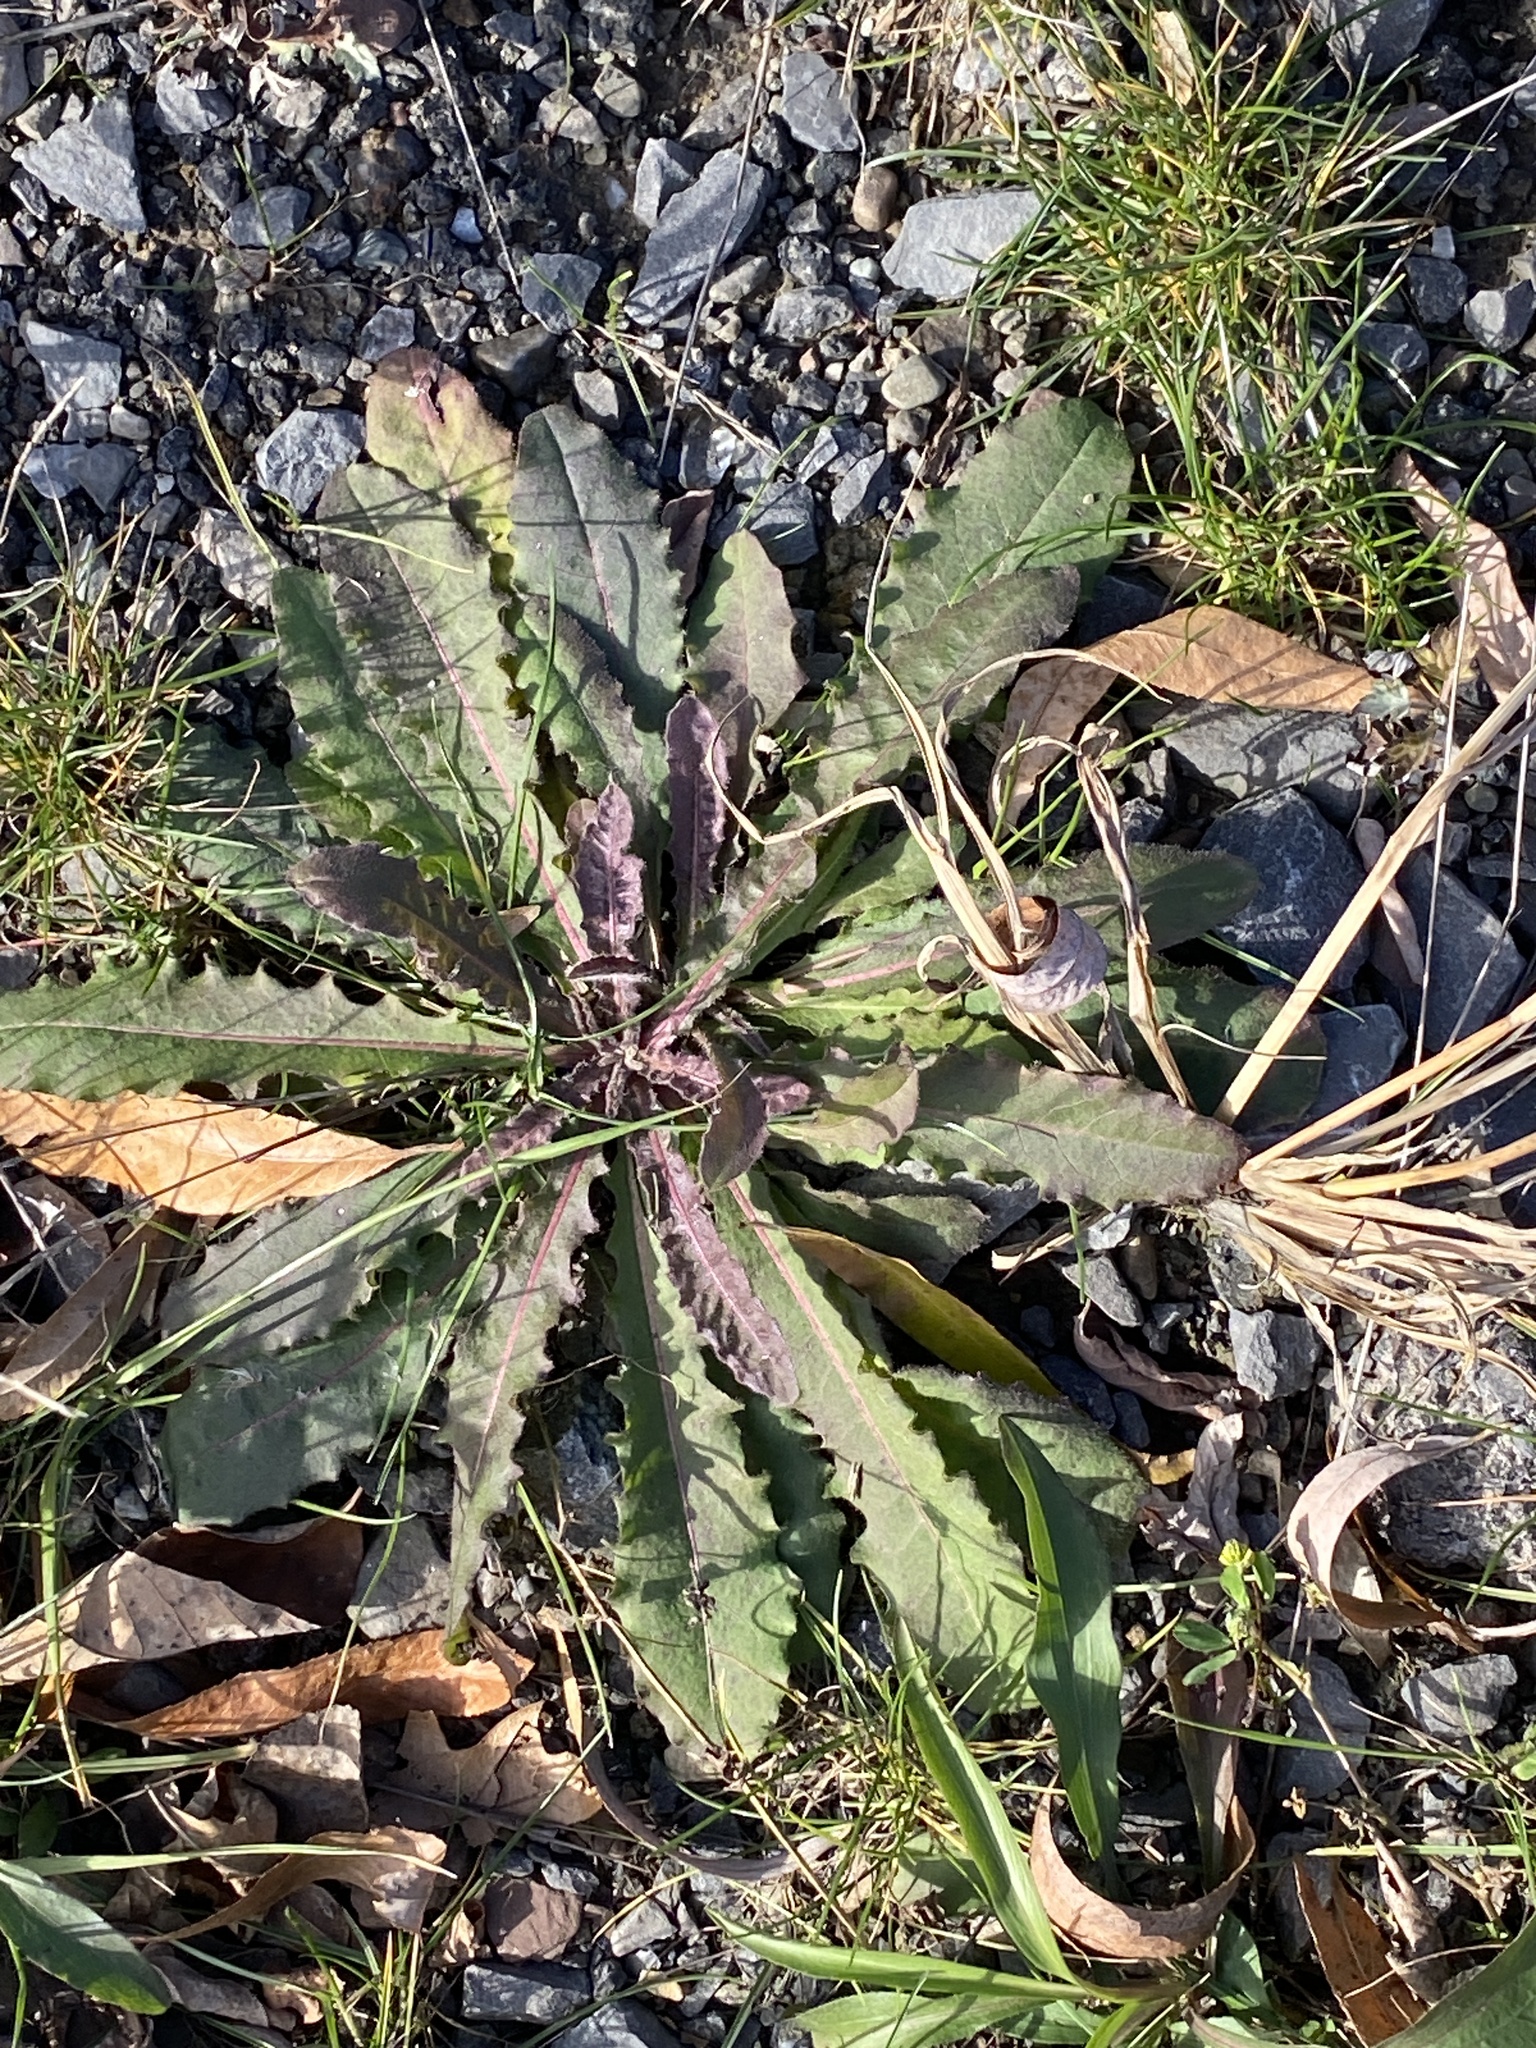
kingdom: Plantae
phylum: Tracheophyta
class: Magnoliopsida
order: Asterales
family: Asteraceae
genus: Picris
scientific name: Picris hieracioides
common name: Hawkweed oxtongue
